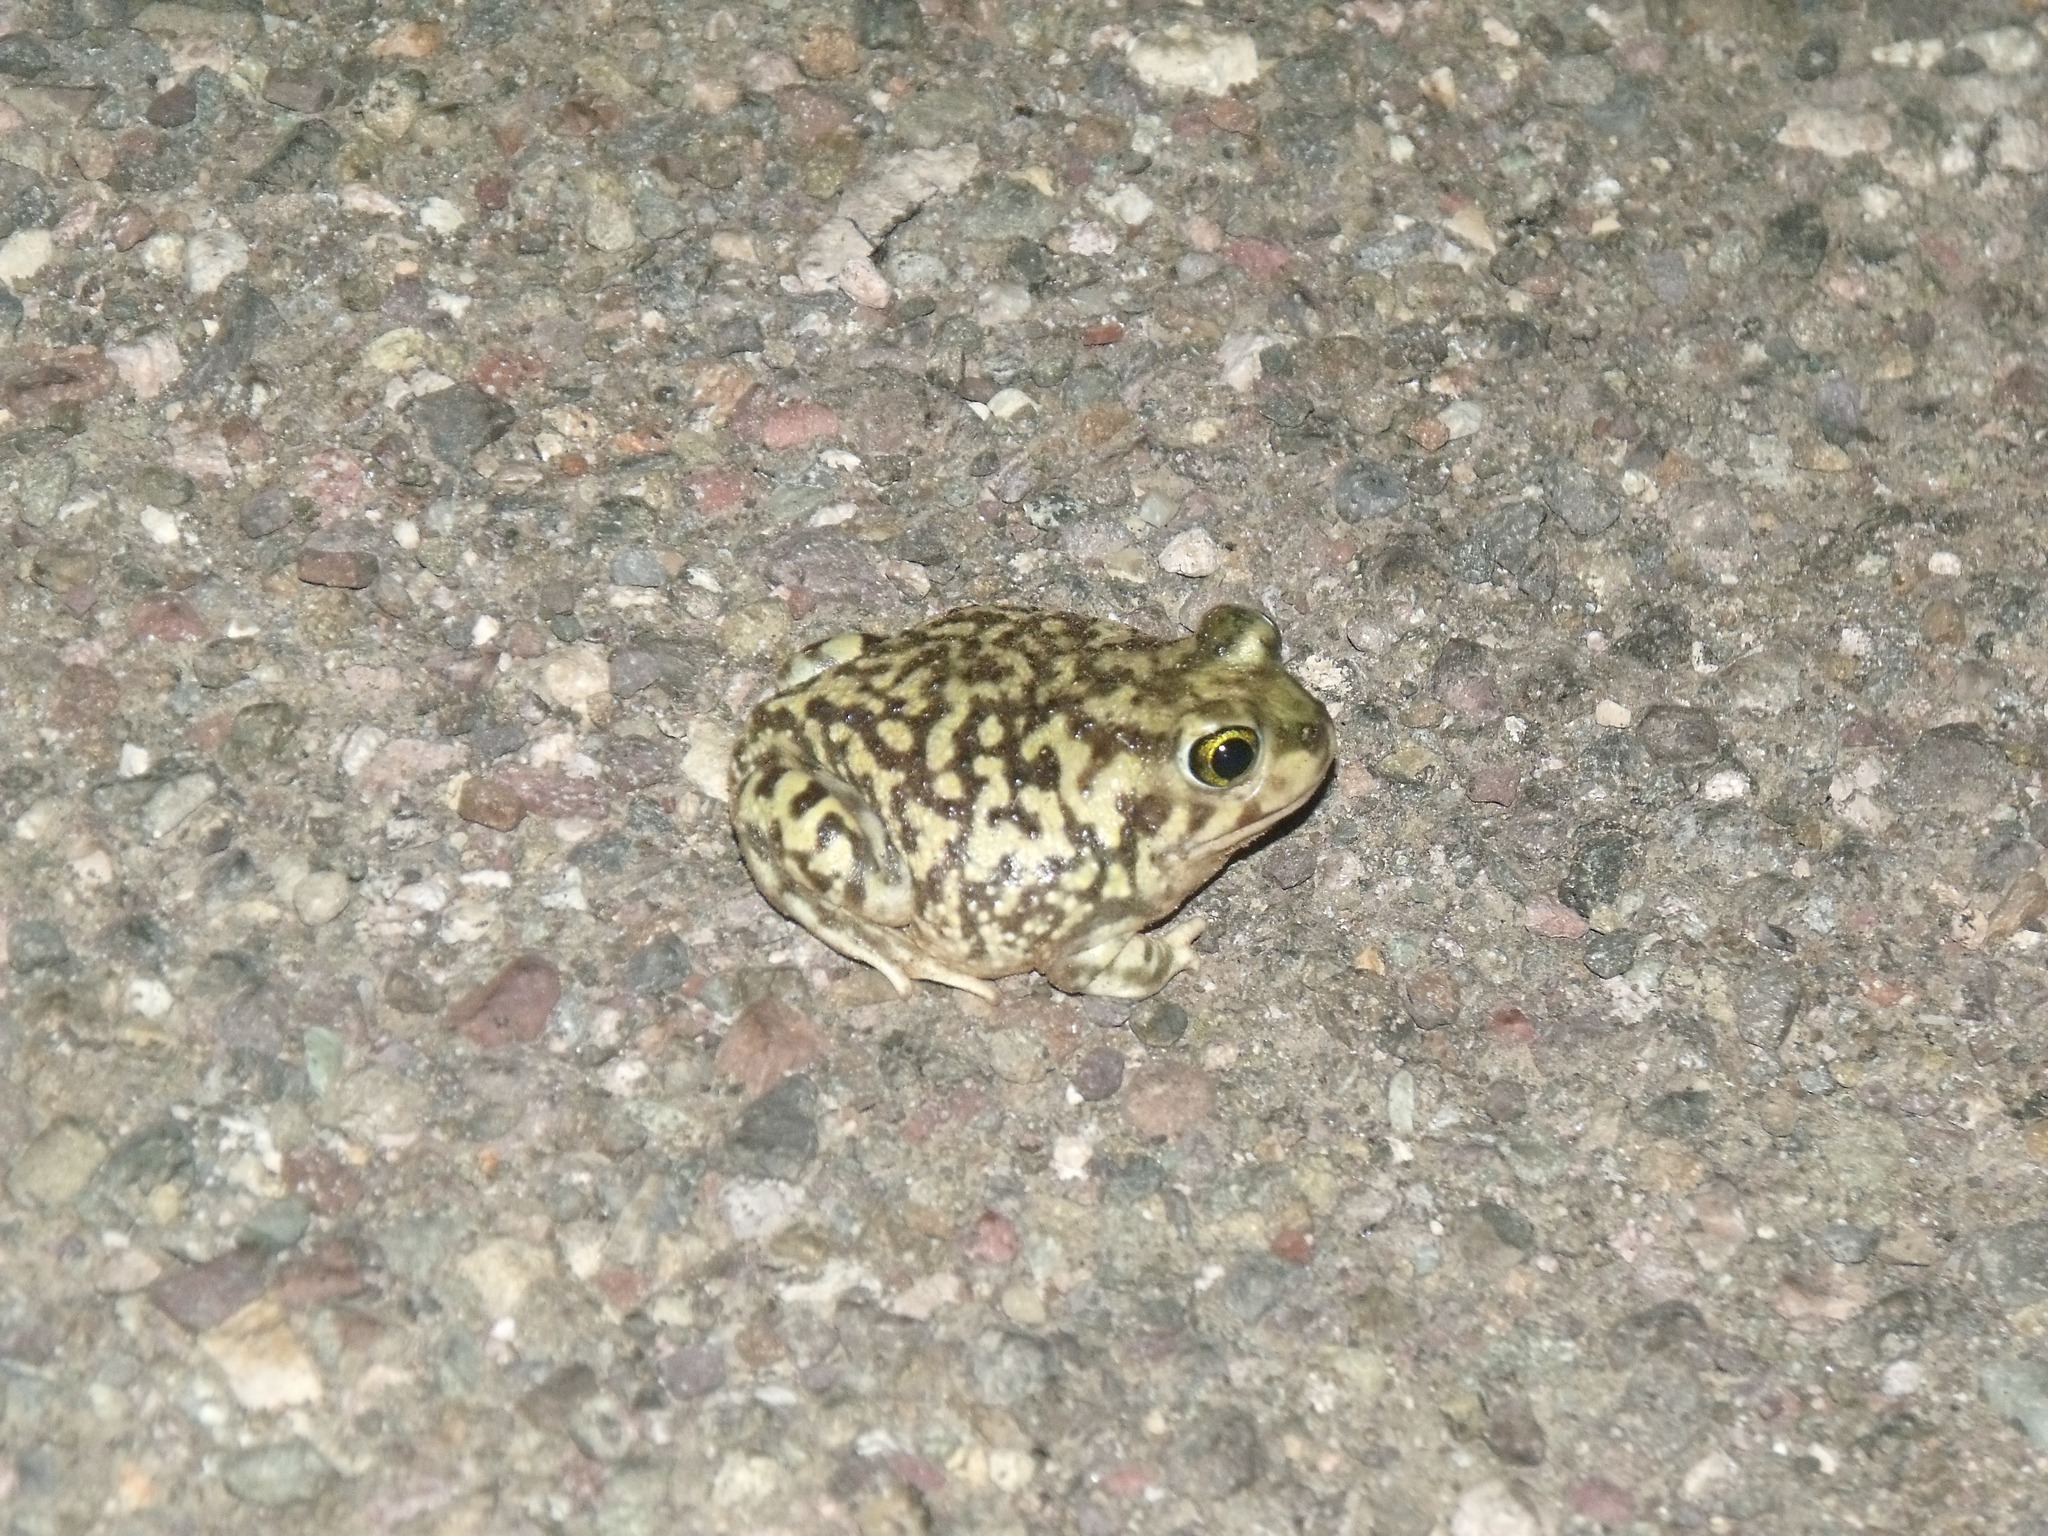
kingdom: Animalia
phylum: Chordata
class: Amphibia
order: Anura
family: Scaphiopodidae
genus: Scaphiopus
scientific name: Scaphiopus couchii
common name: Couch's spadefoot toad
